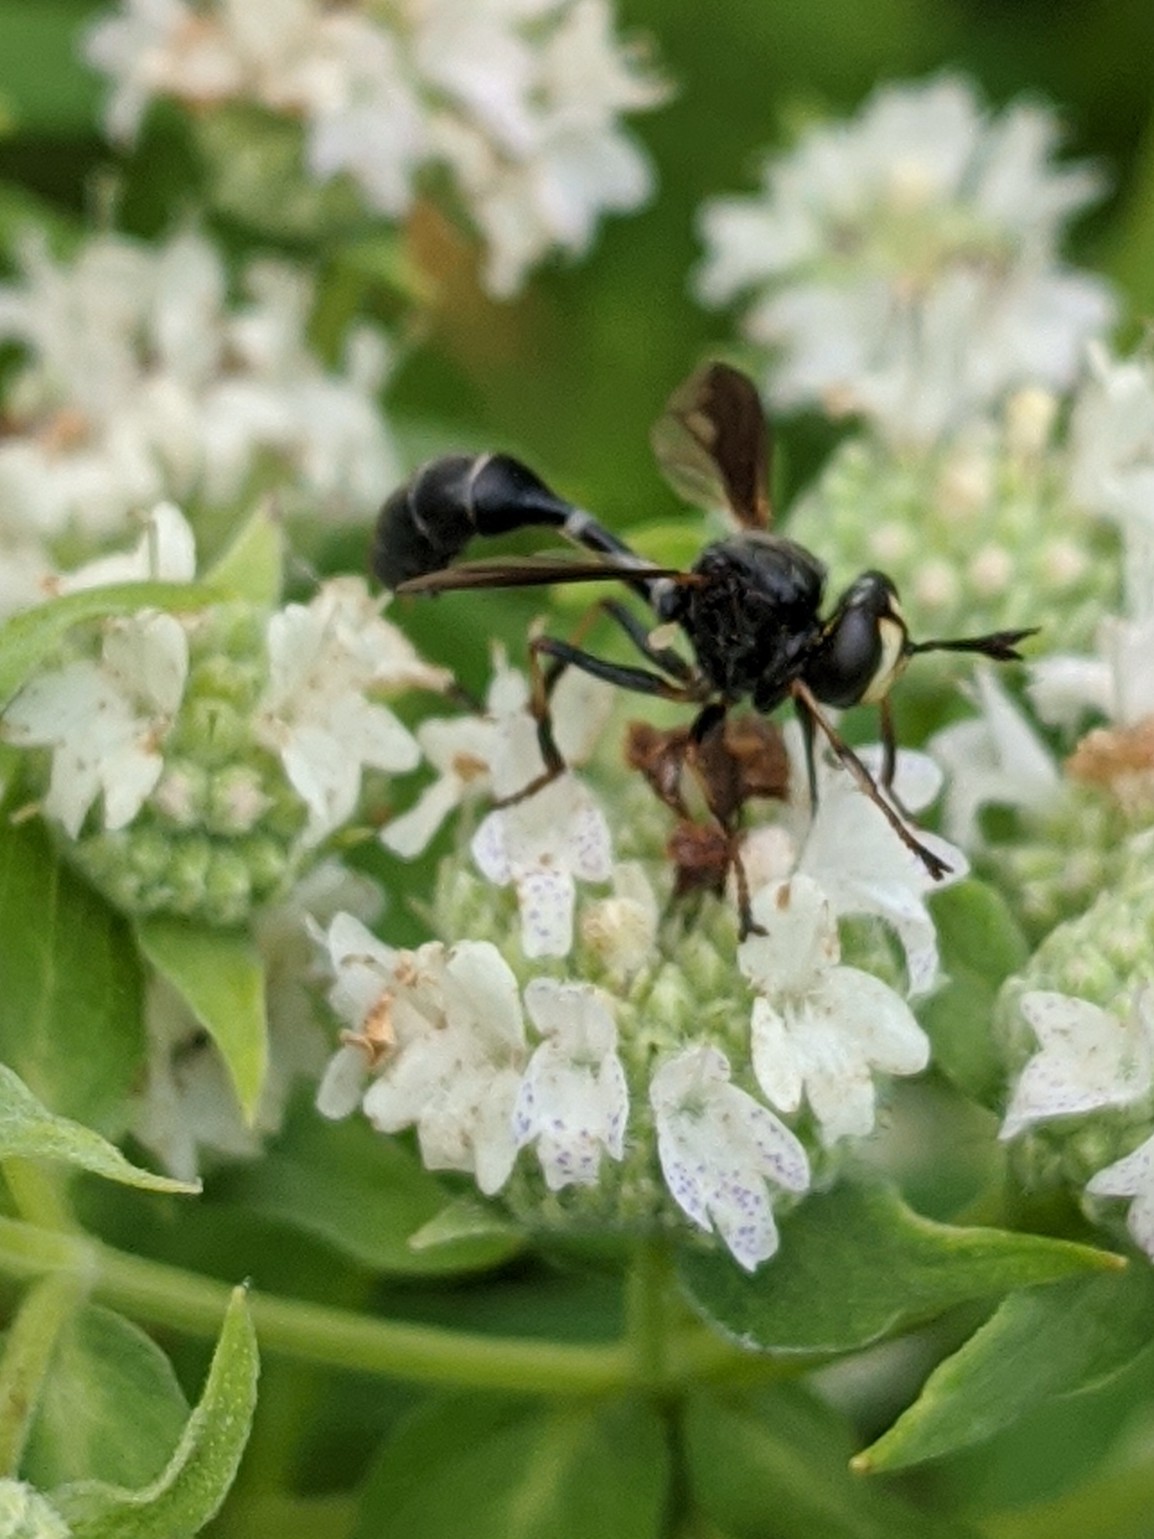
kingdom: Animalia
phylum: Arthropoda
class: Insecta
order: Diptera
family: Conopidae
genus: Physocephala
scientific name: Physocephala furcillata
